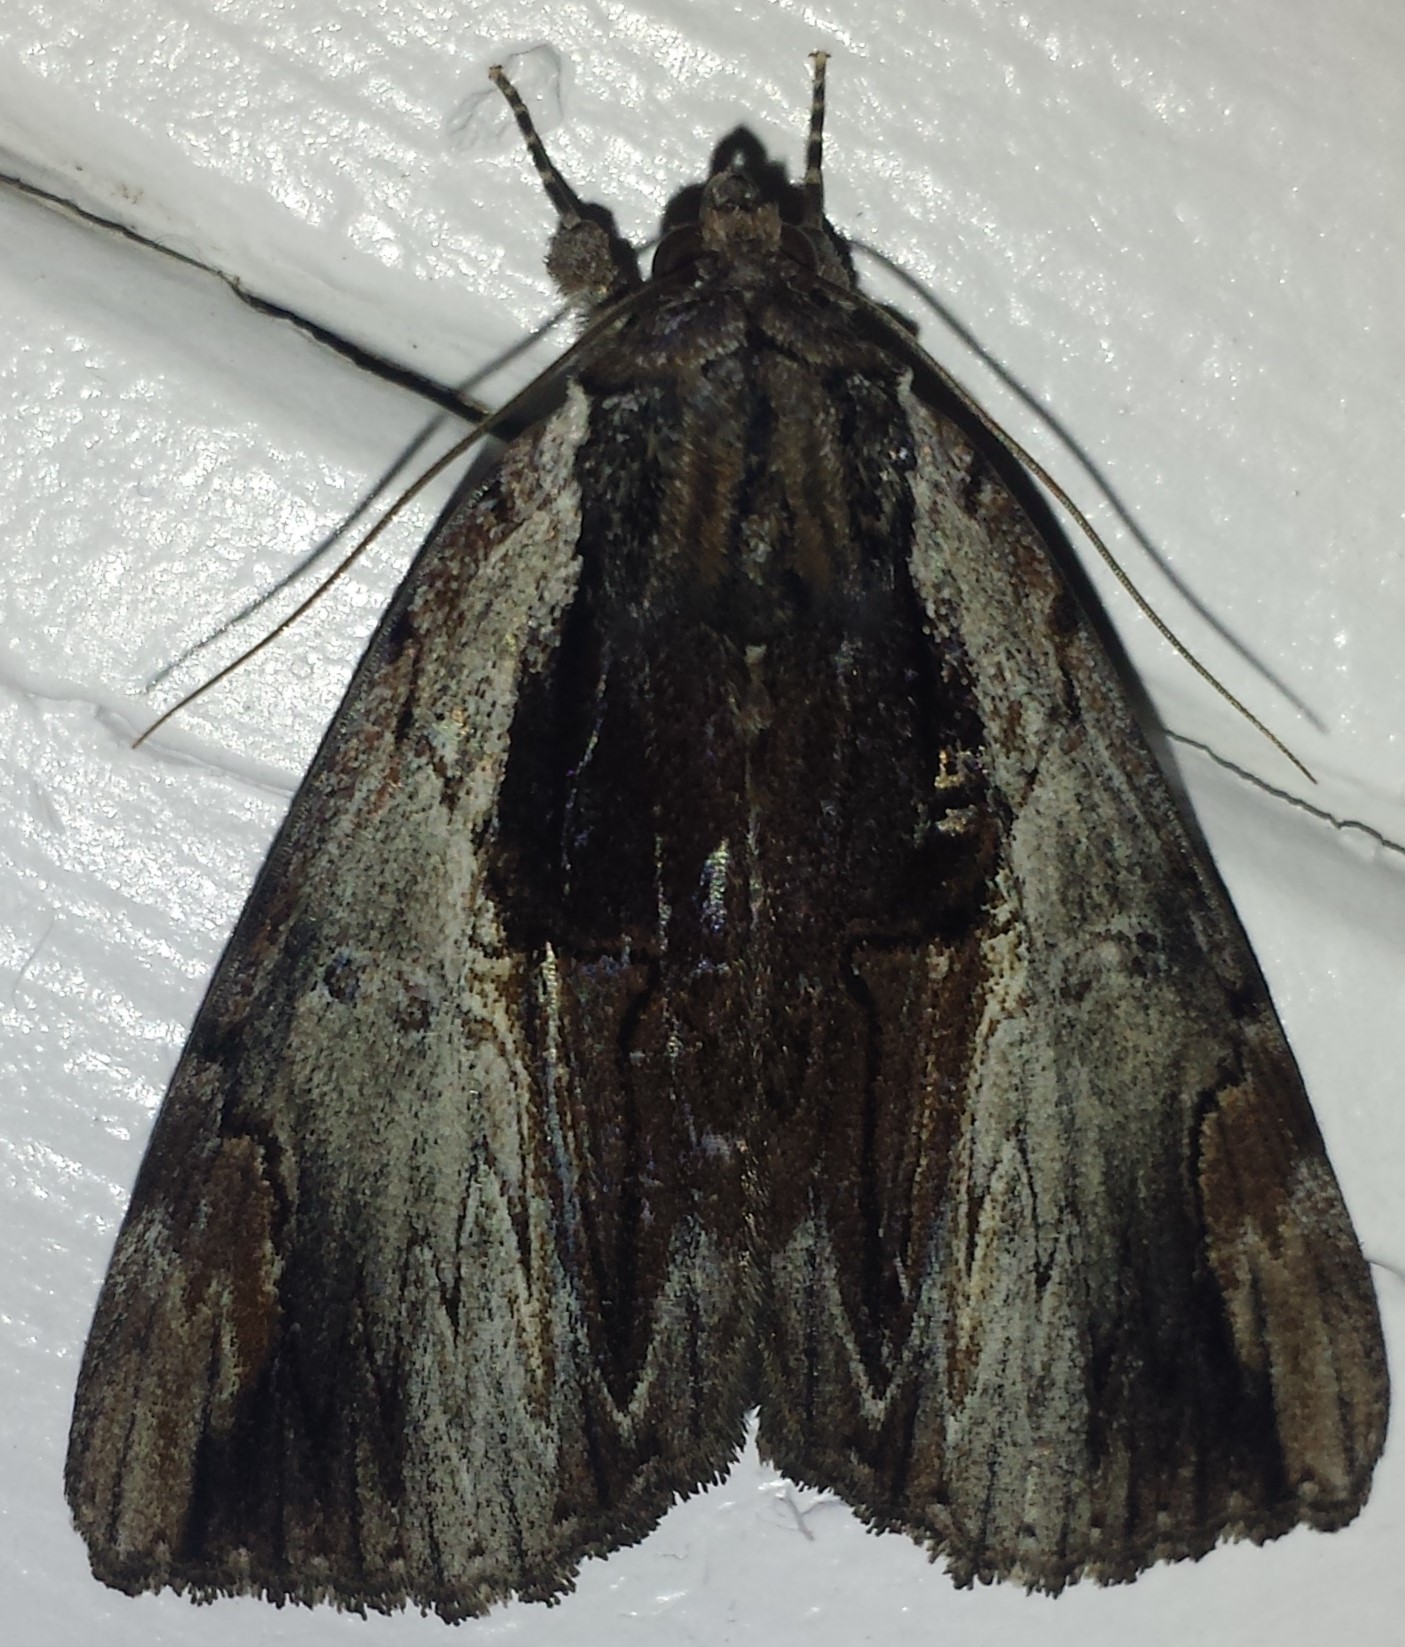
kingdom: Animalia
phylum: Arthropoda
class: Insecta
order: Lepidoptera
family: Erebidae
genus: Catocala
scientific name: Catocala ultronia
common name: Ultronia underwing
